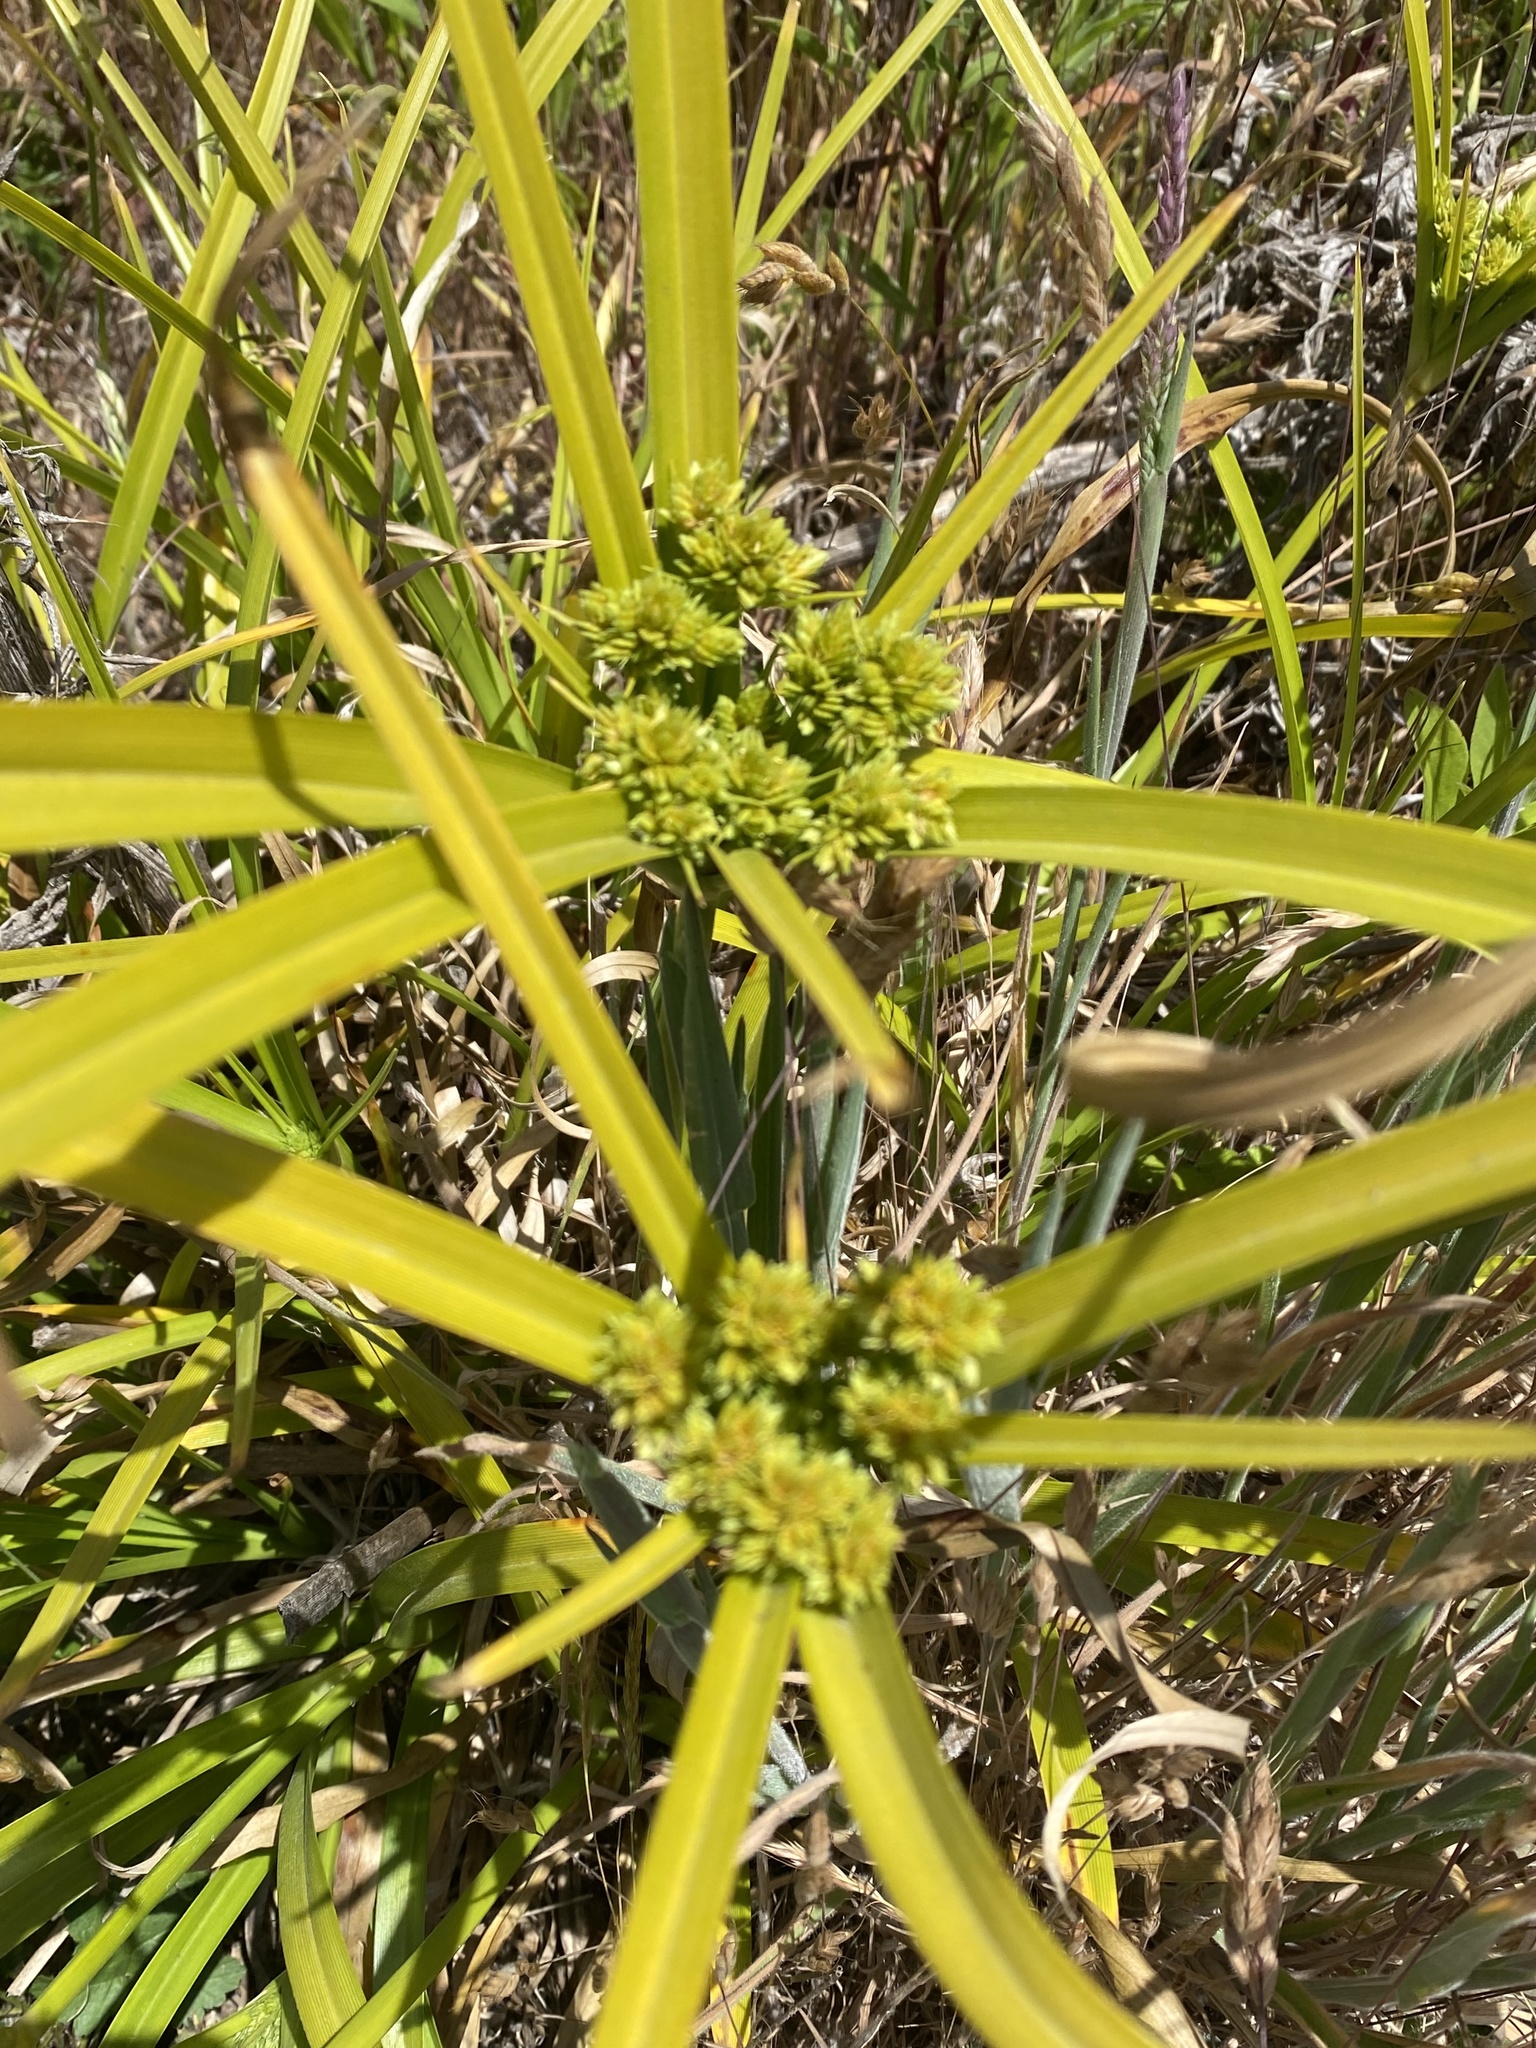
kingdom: Plantae
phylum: Tracheophyta
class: Liliopsida
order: Poales
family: Cyperaceae
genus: Cyperus
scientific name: Cyperus eragrostis
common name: Tall flatsedge
